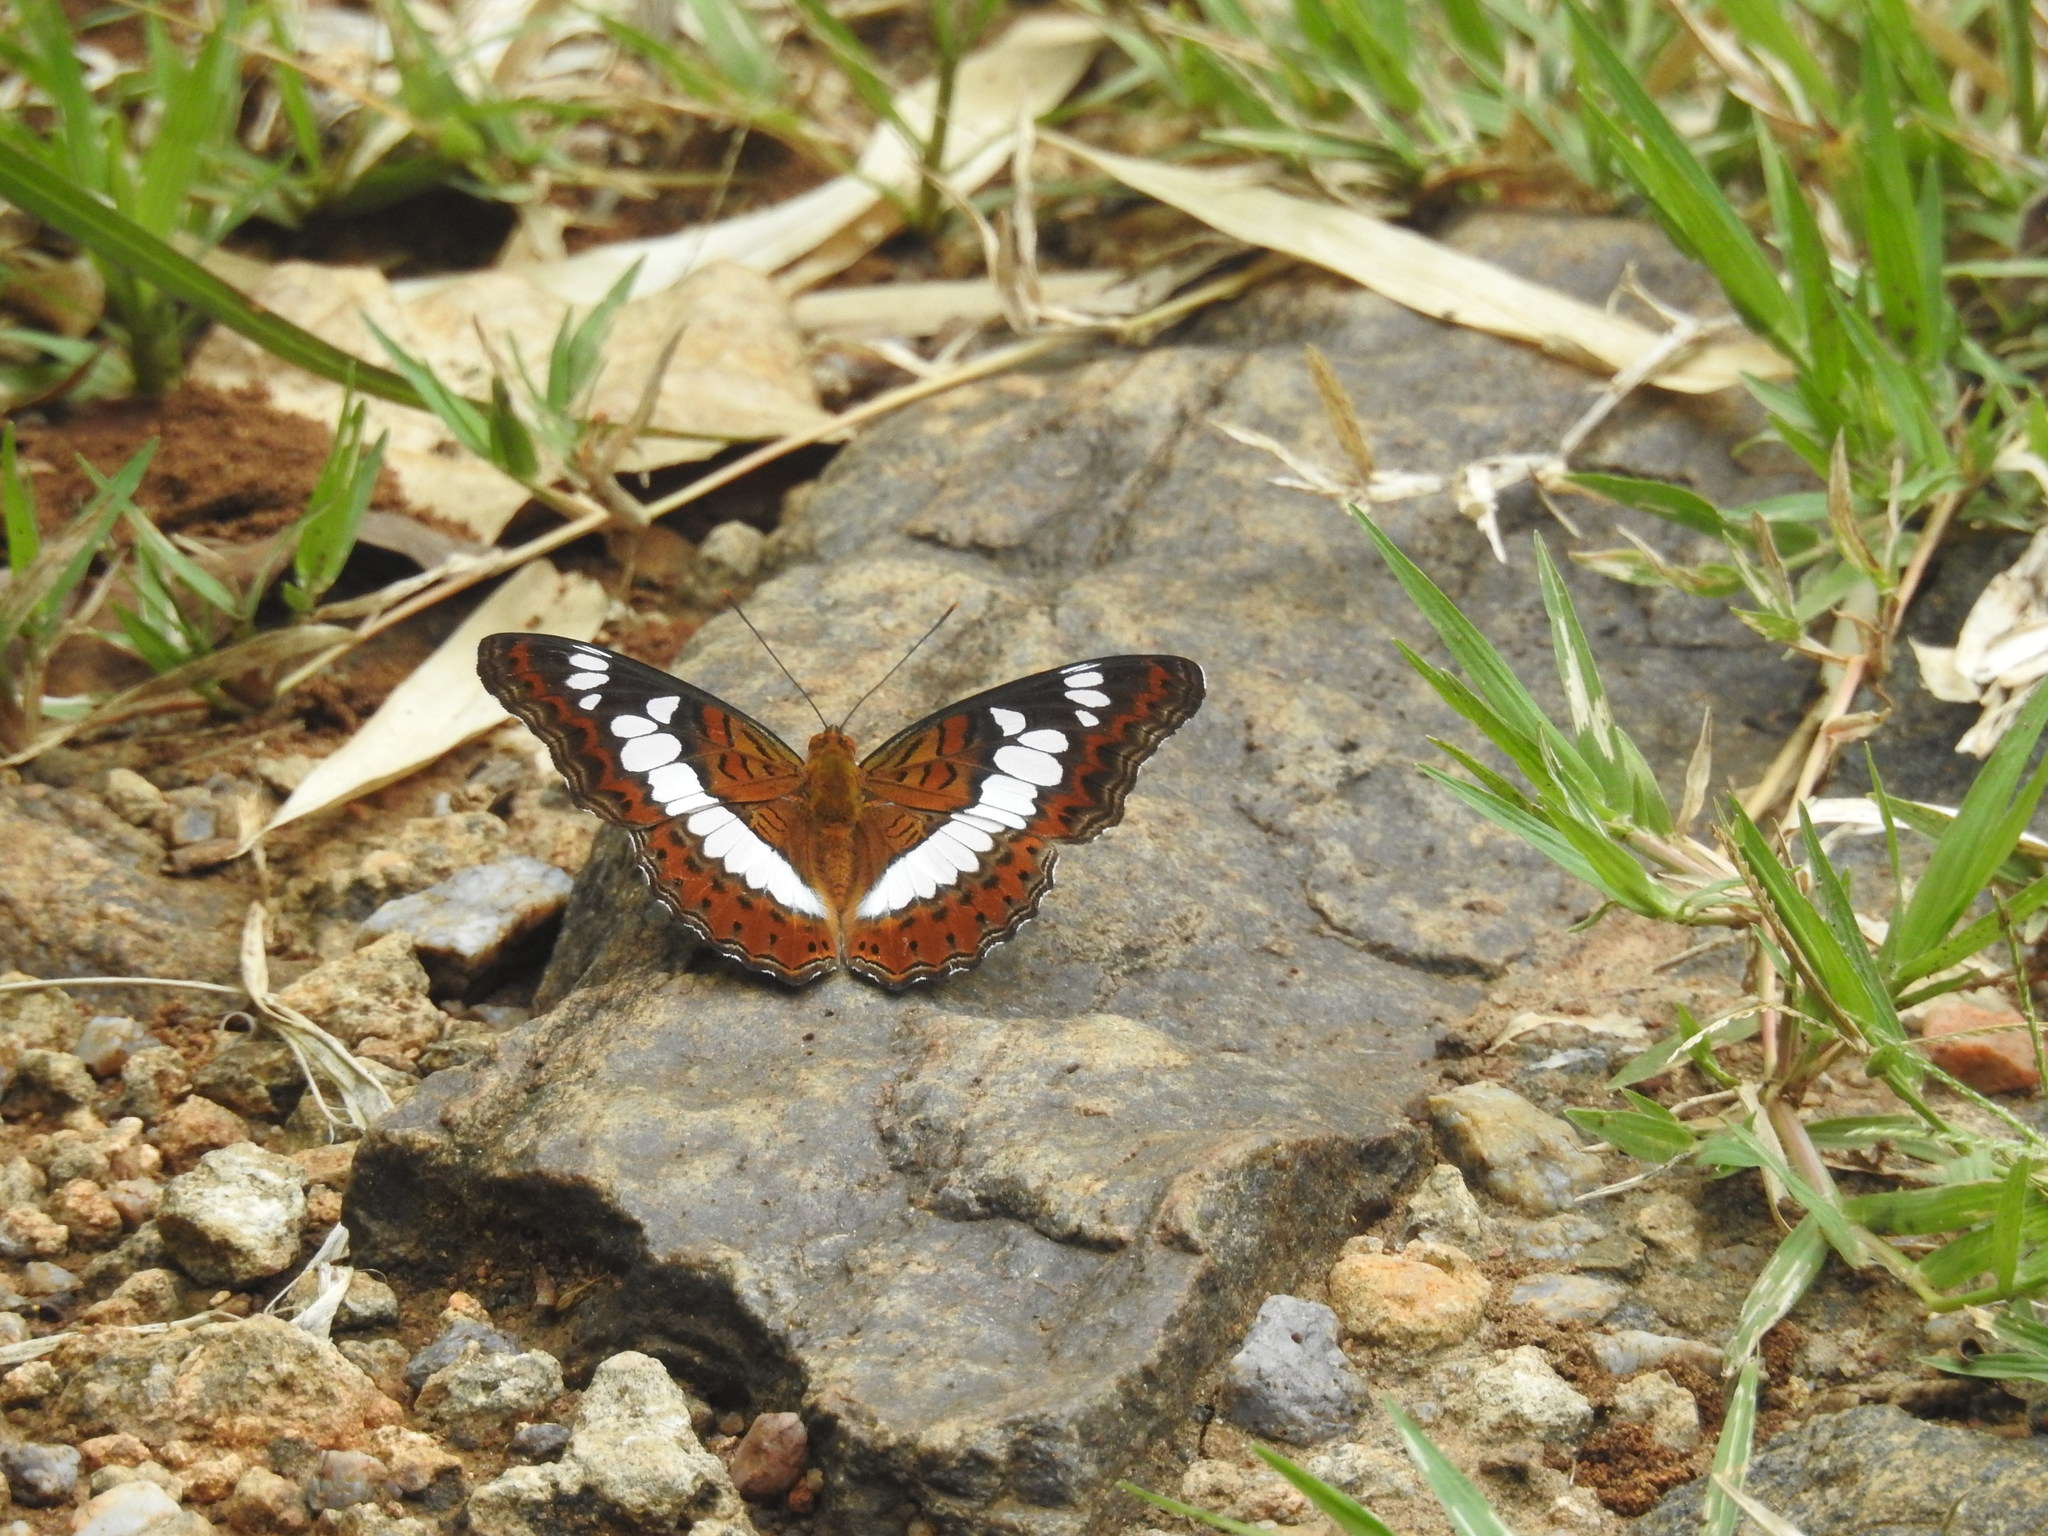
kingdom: Animalia
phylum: Arthropoda
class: Insecta
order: Lepidoptera
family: Nymphalidae
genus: Limenitis
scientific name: Limenitis Moduza procris
